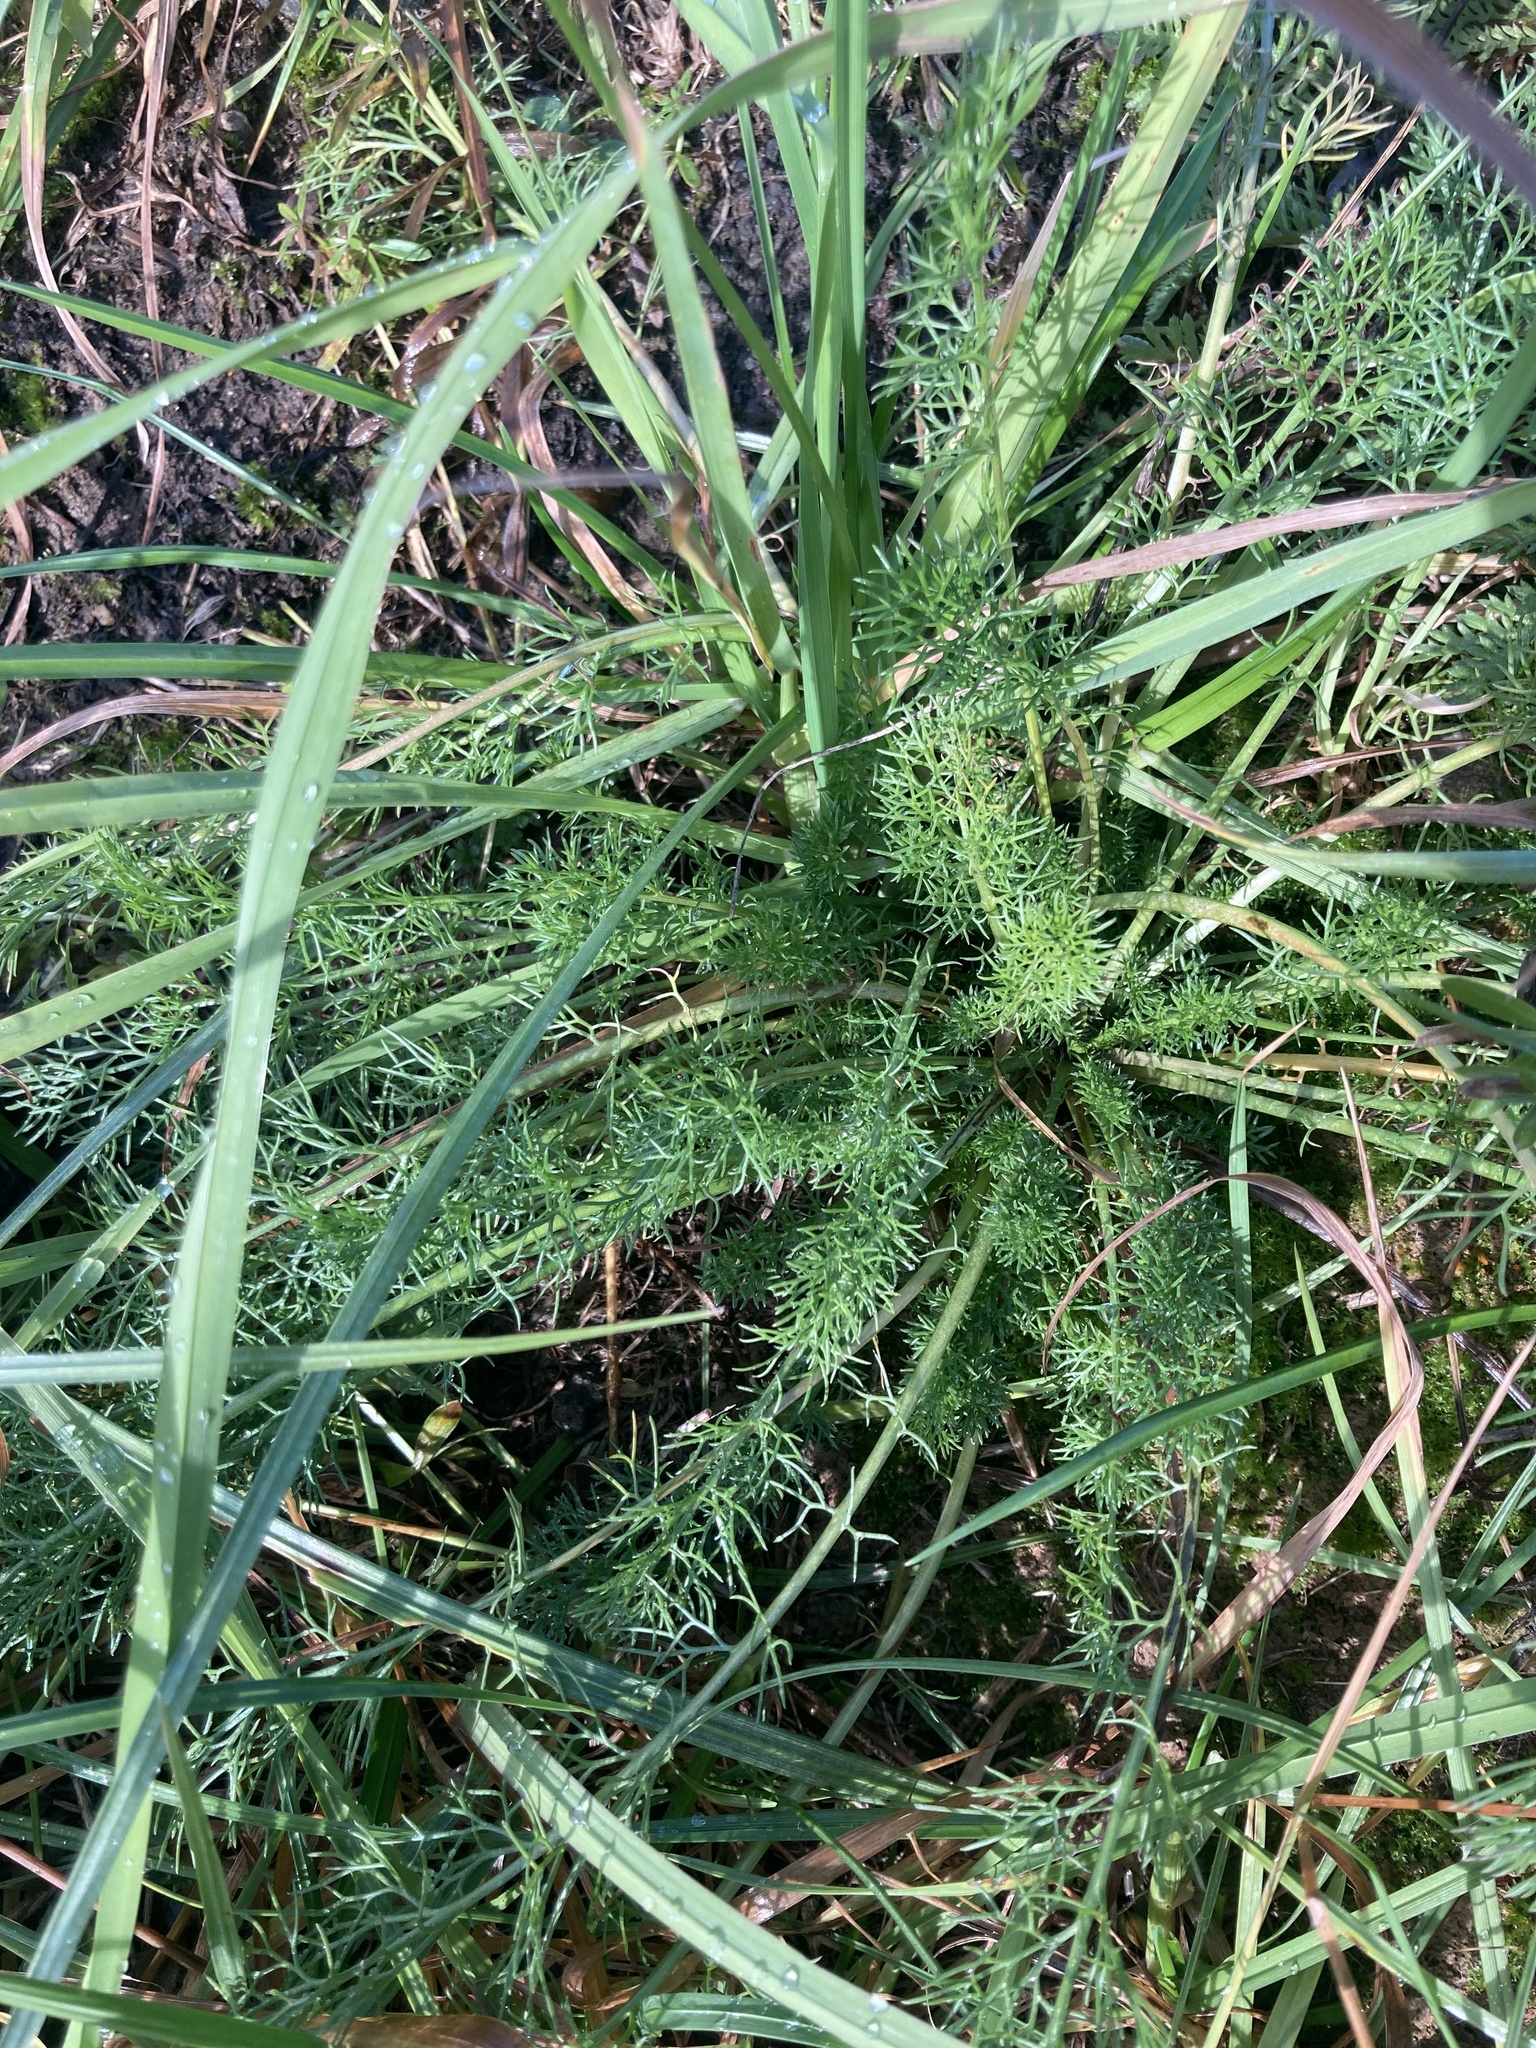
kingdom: Plantae
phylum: Tracheophyta
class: Magnoliopsida
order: Asterales
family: Asteraceae
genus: Tripleurospermum
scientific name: Tripleurospermum inodorum
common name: Scentless mayweed
